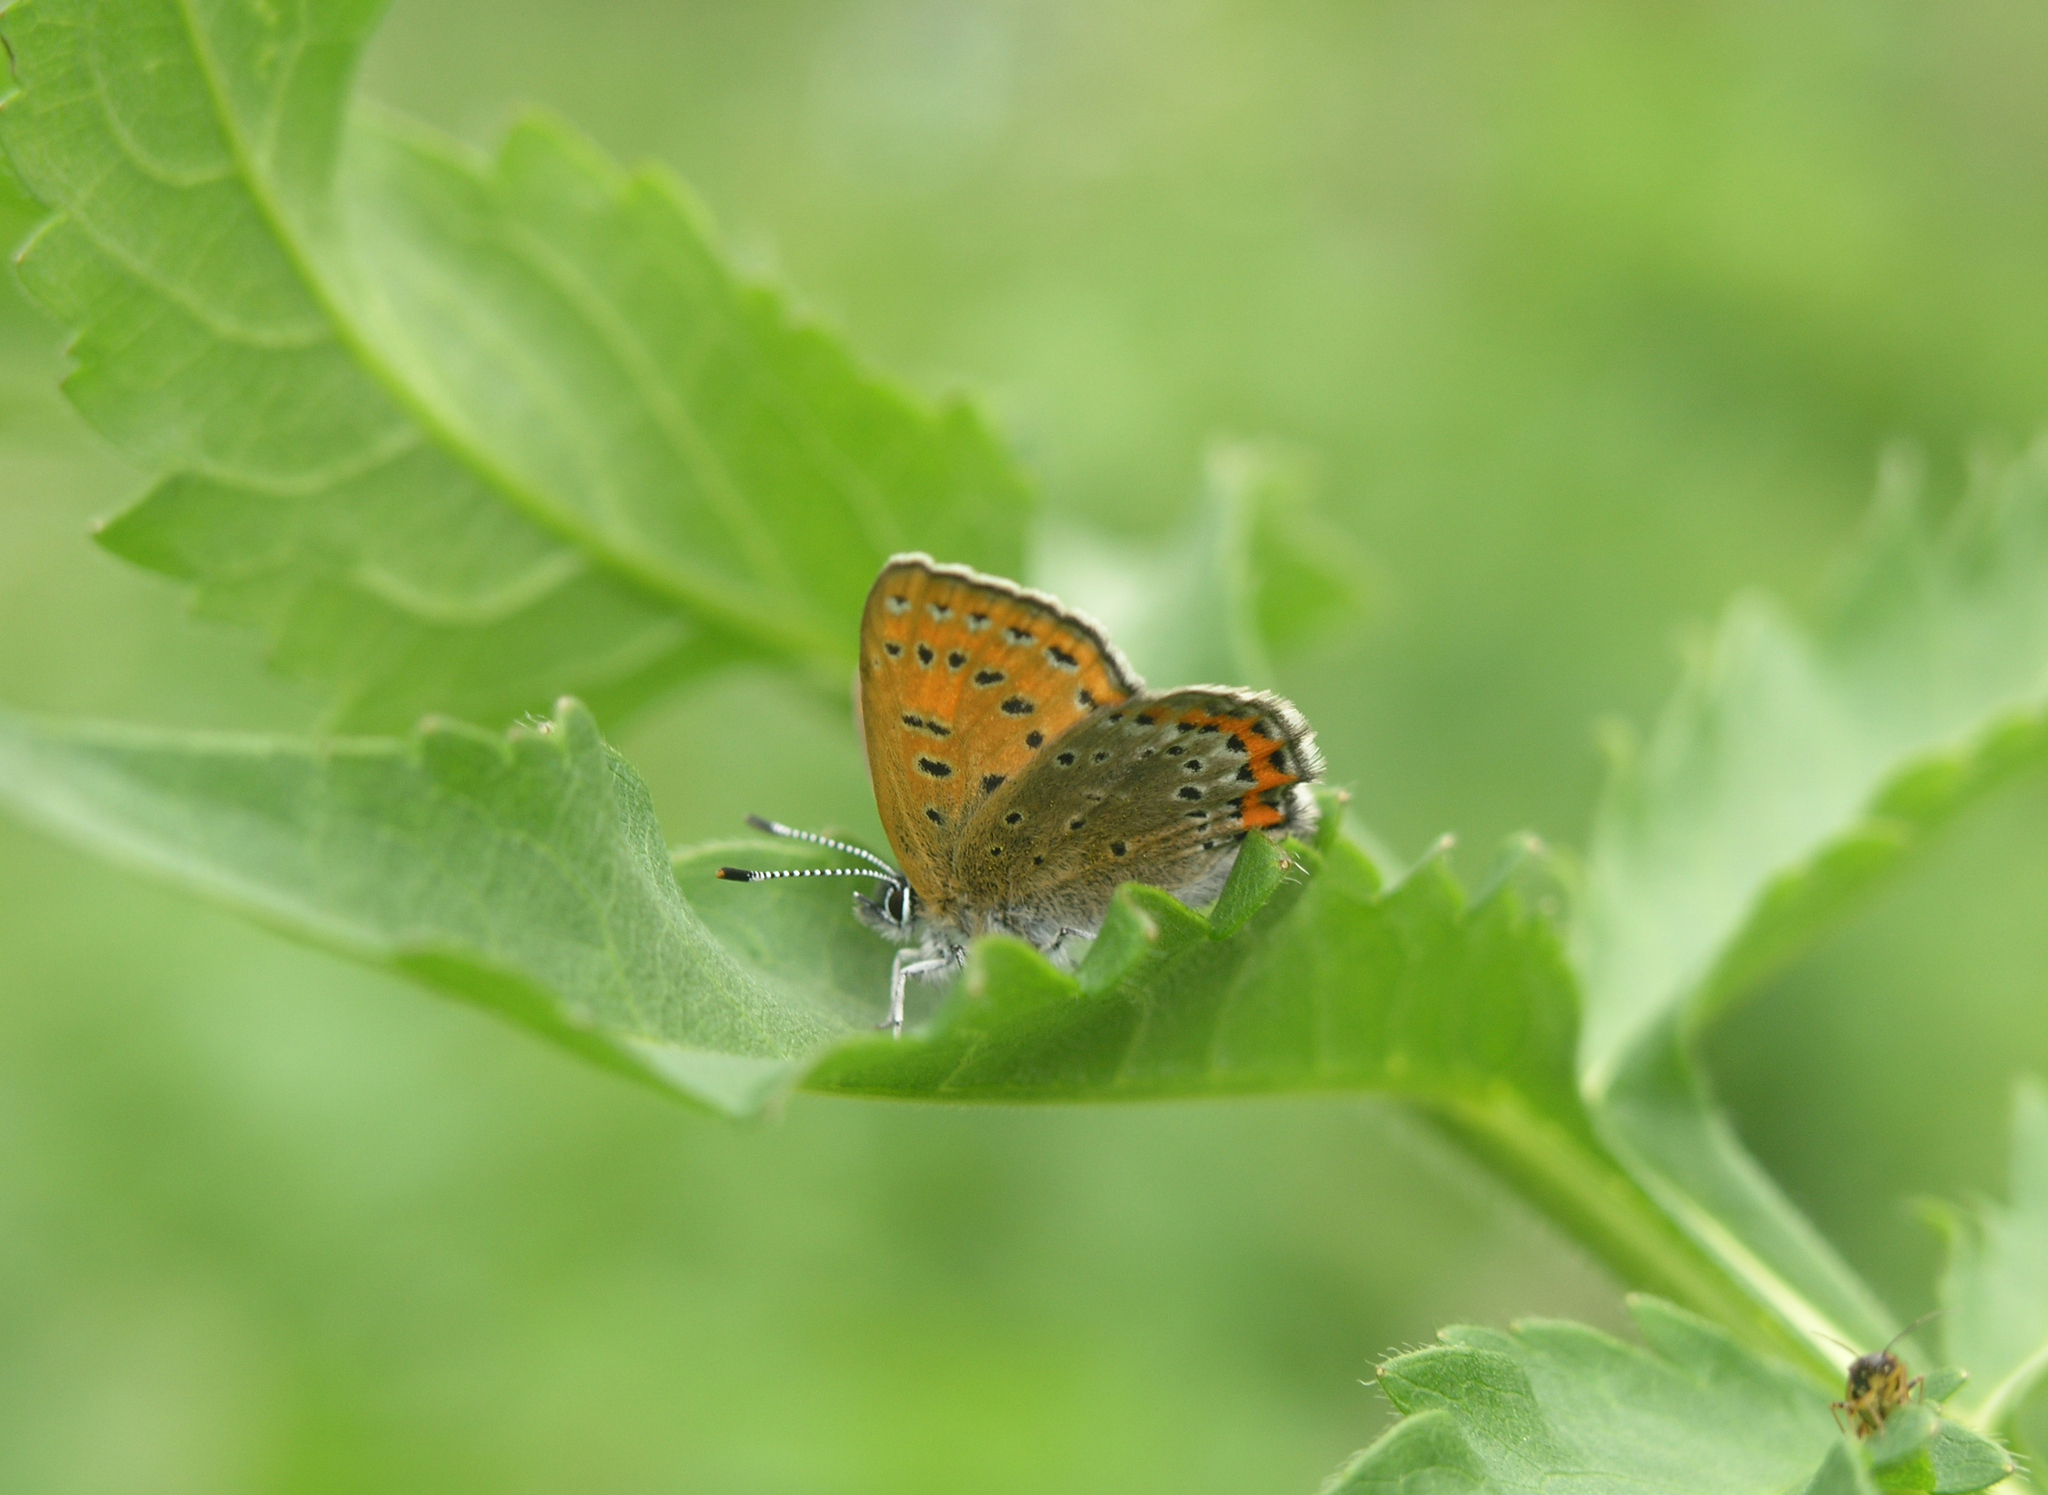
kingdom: Animalia
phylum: Arthropoda
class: Insecta
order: Lepidoptera
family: Lycaenidae
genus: Helleia
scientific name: Helleia helle
